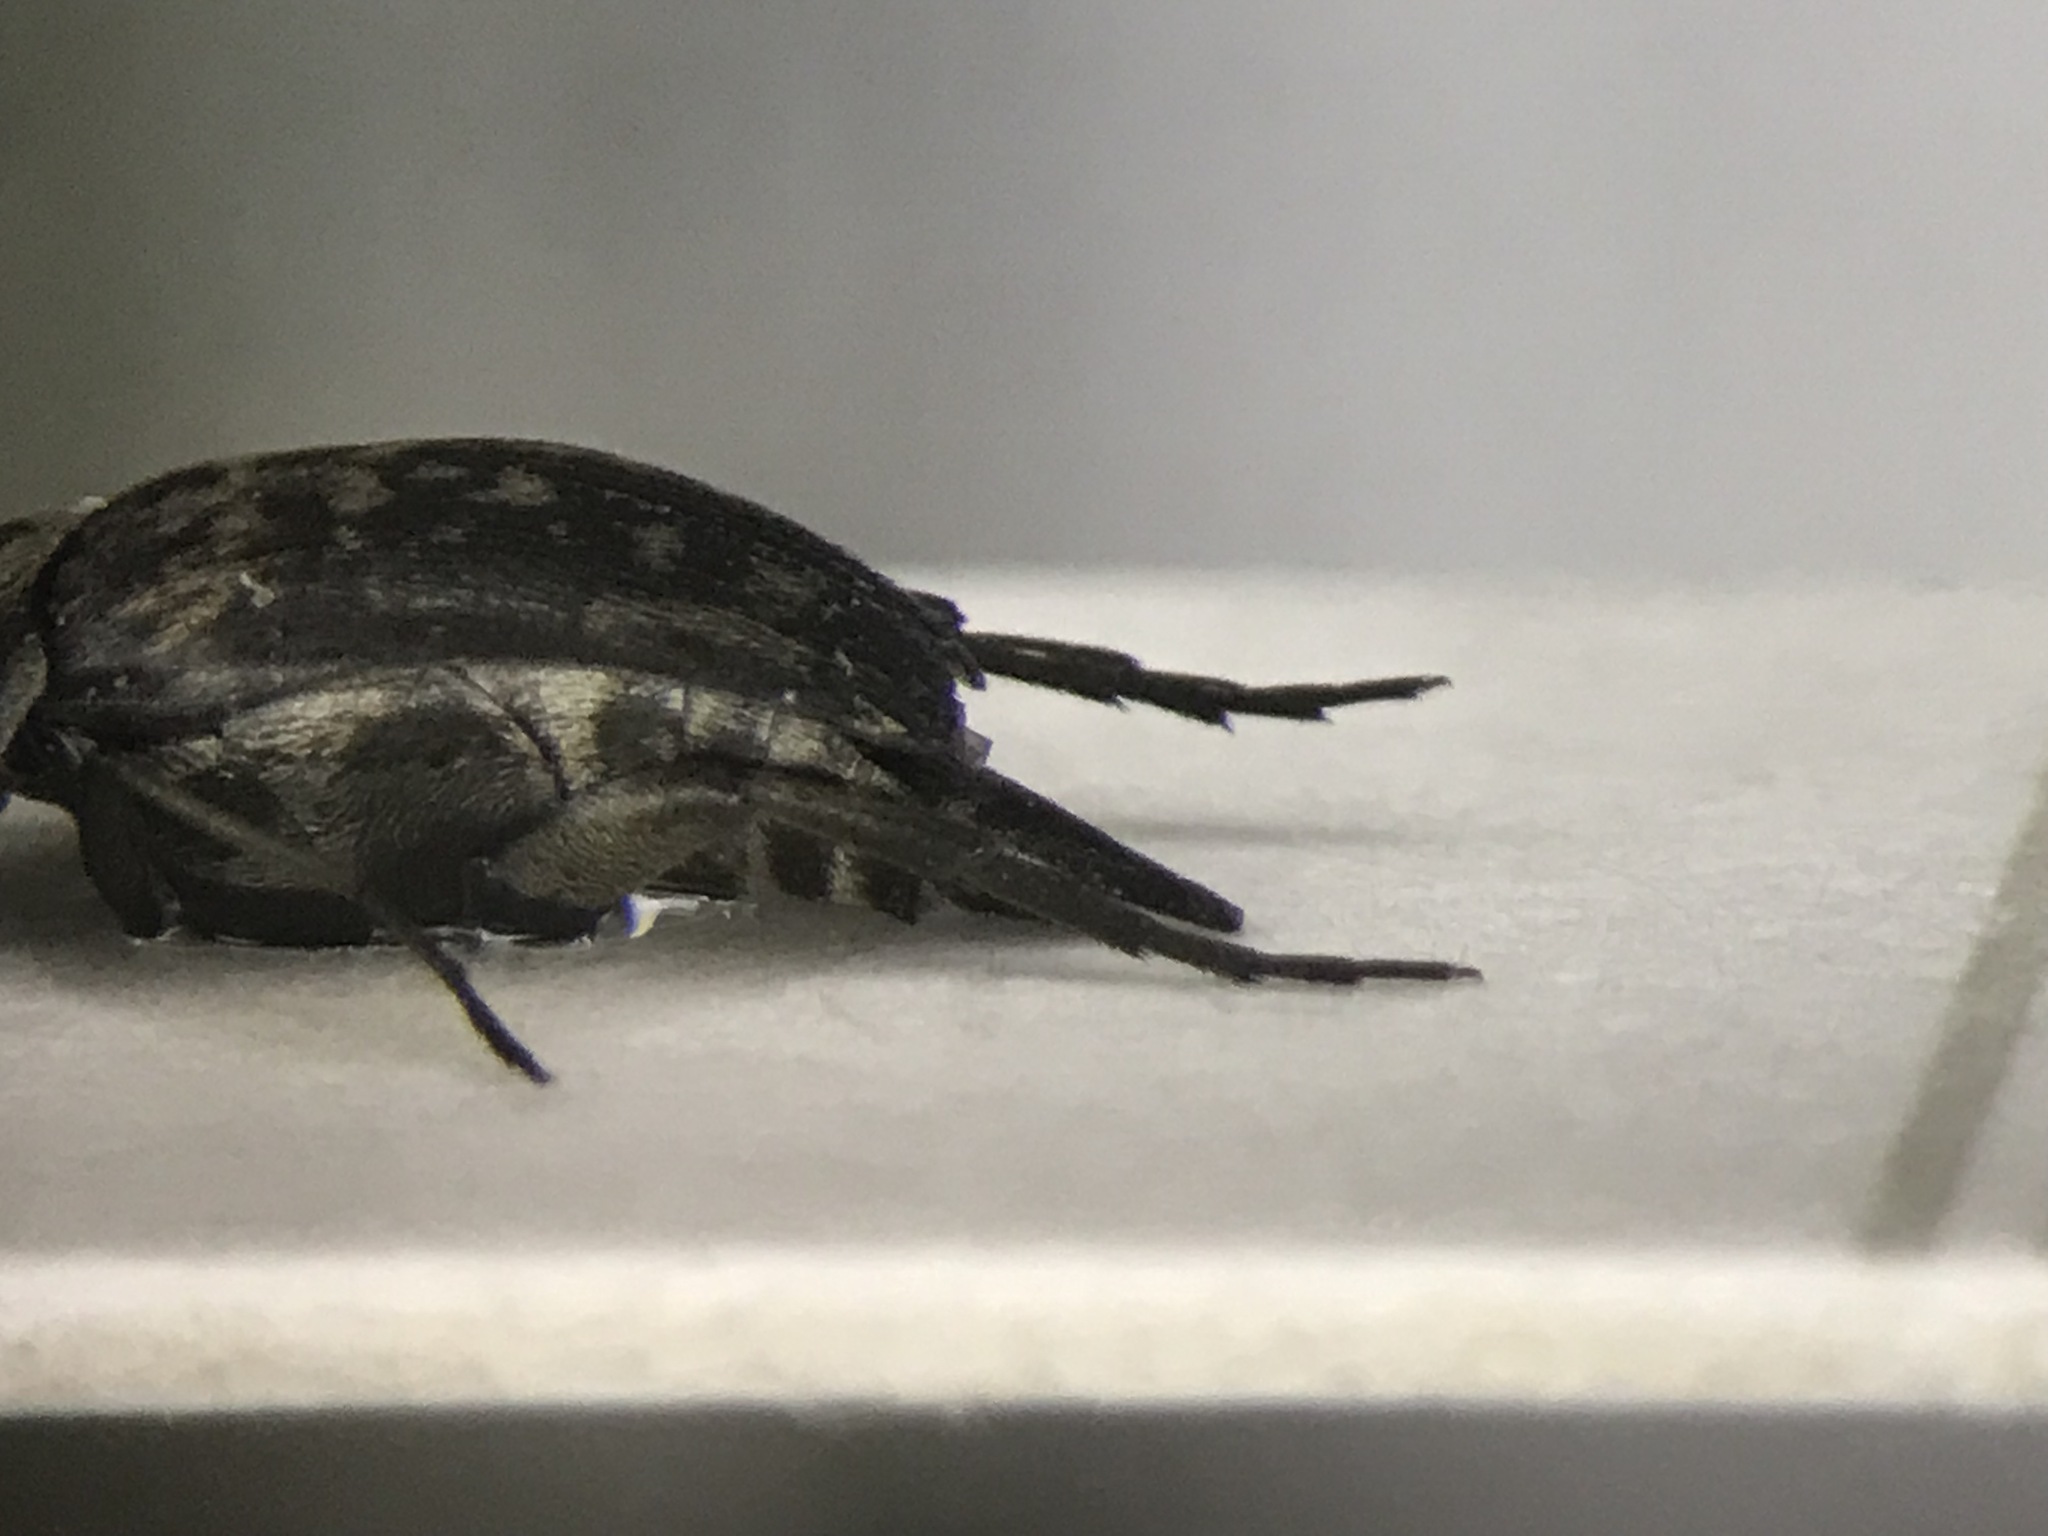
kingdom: Animalia
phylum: Arthropoda
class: Insecta
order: Coleoptera
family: Mordellidae
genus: Mordella
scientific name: Mordella marginata
